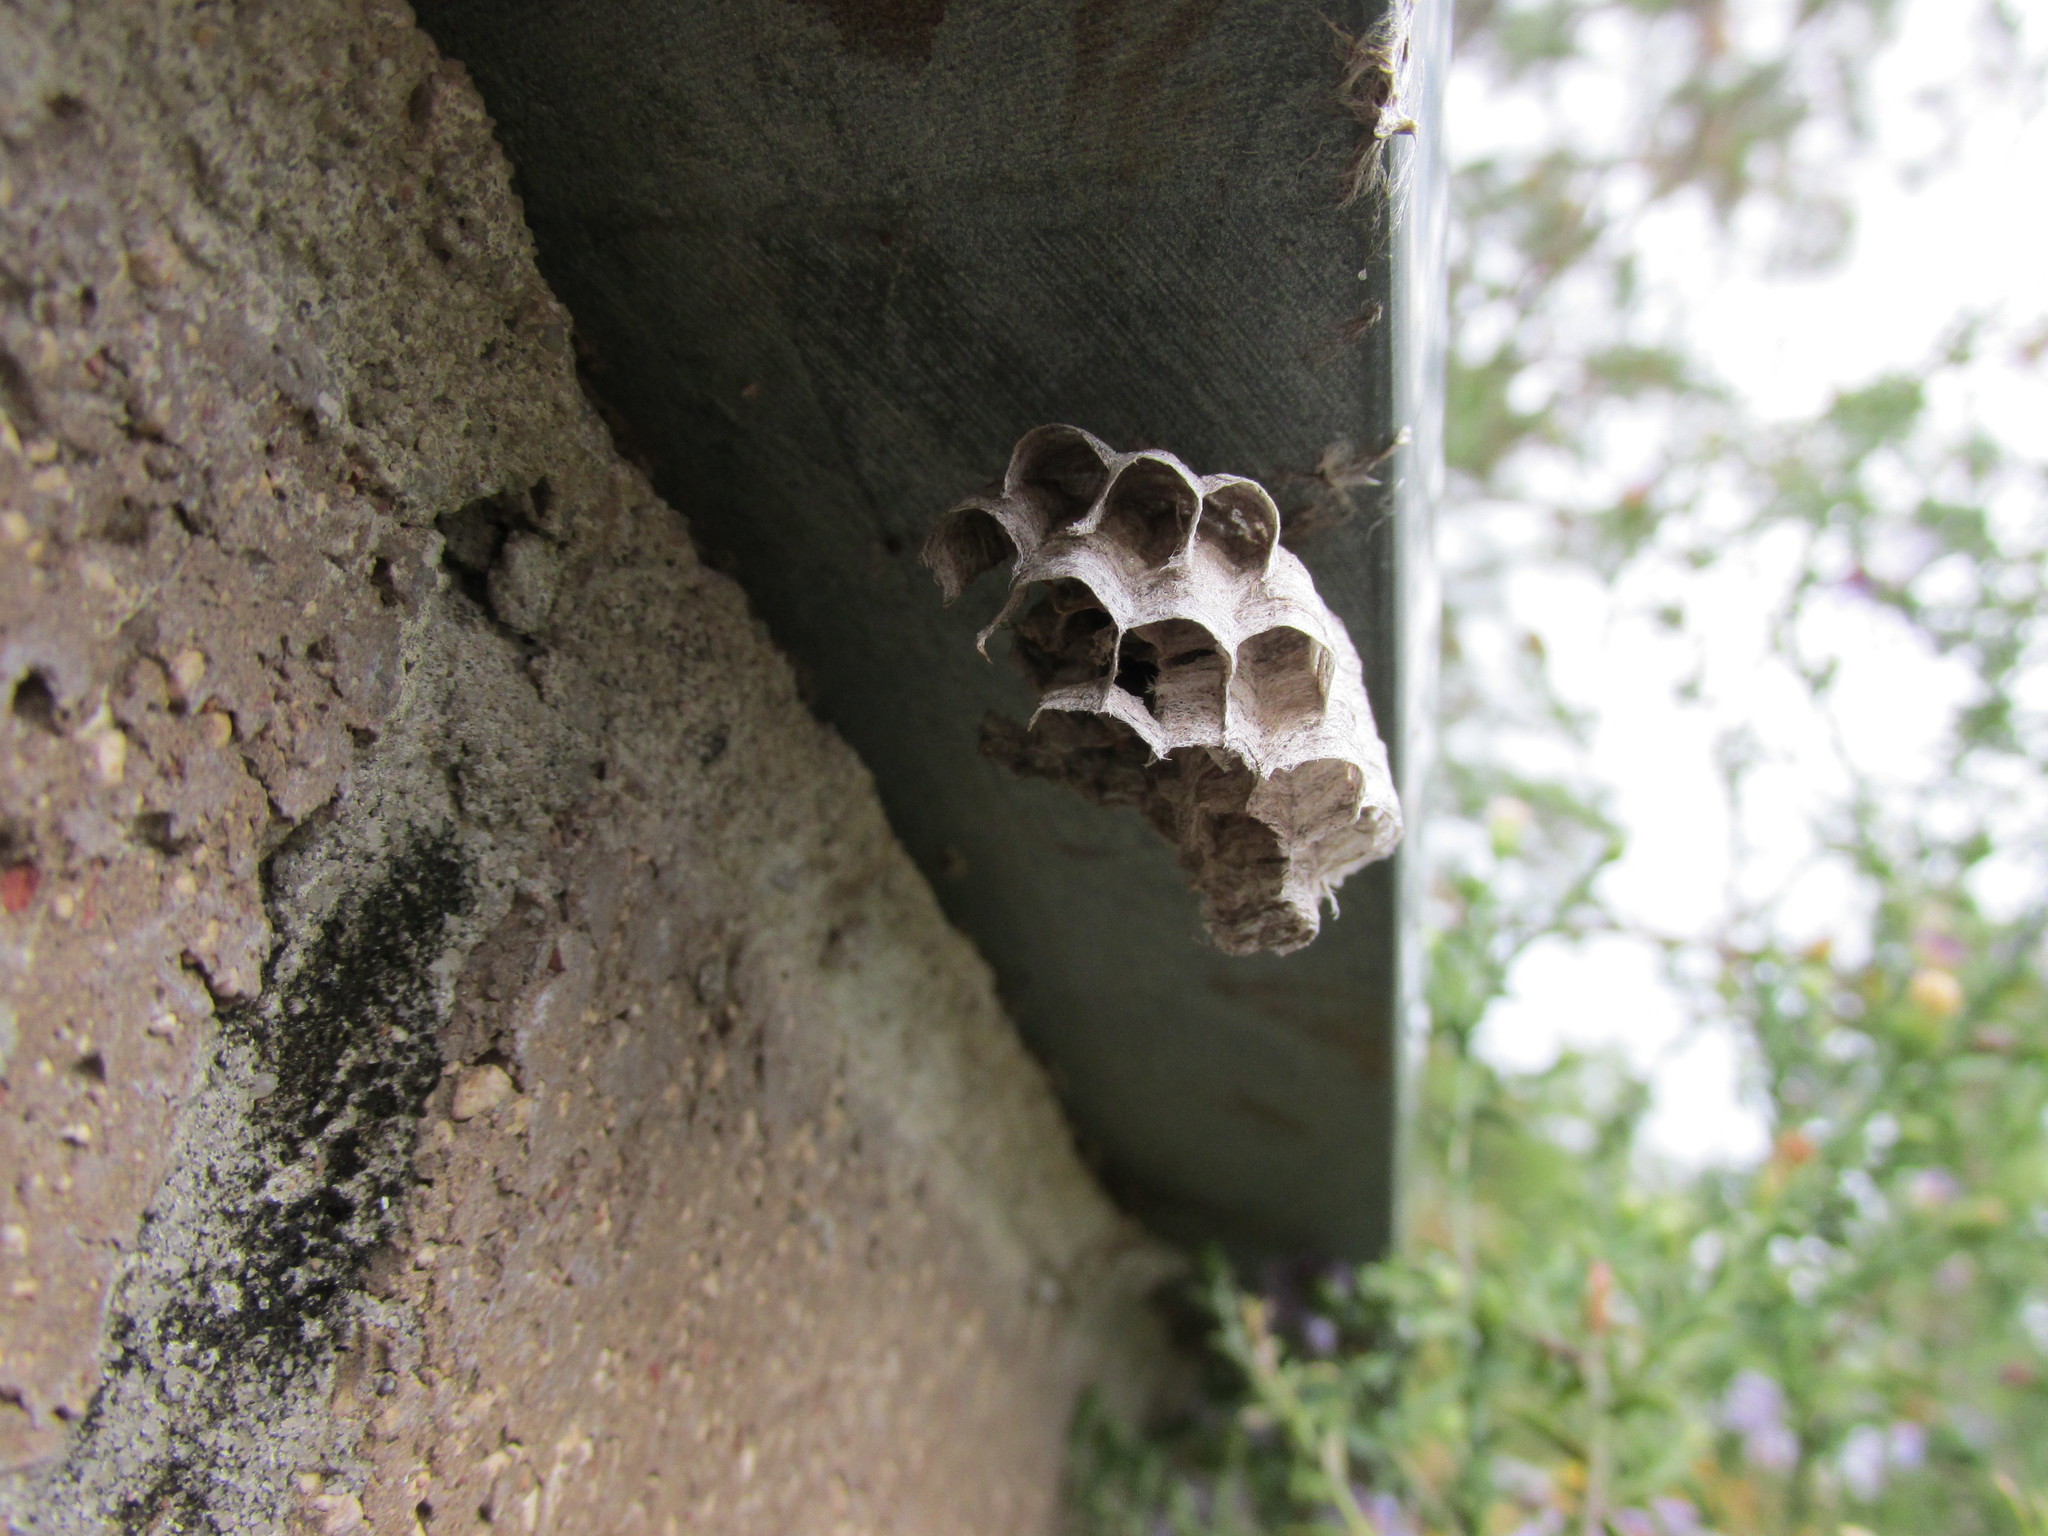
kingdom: Animalia
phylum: Arthropoda
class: Insecta
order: Hymenoptera
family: Vespidae
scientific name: Vespidae
